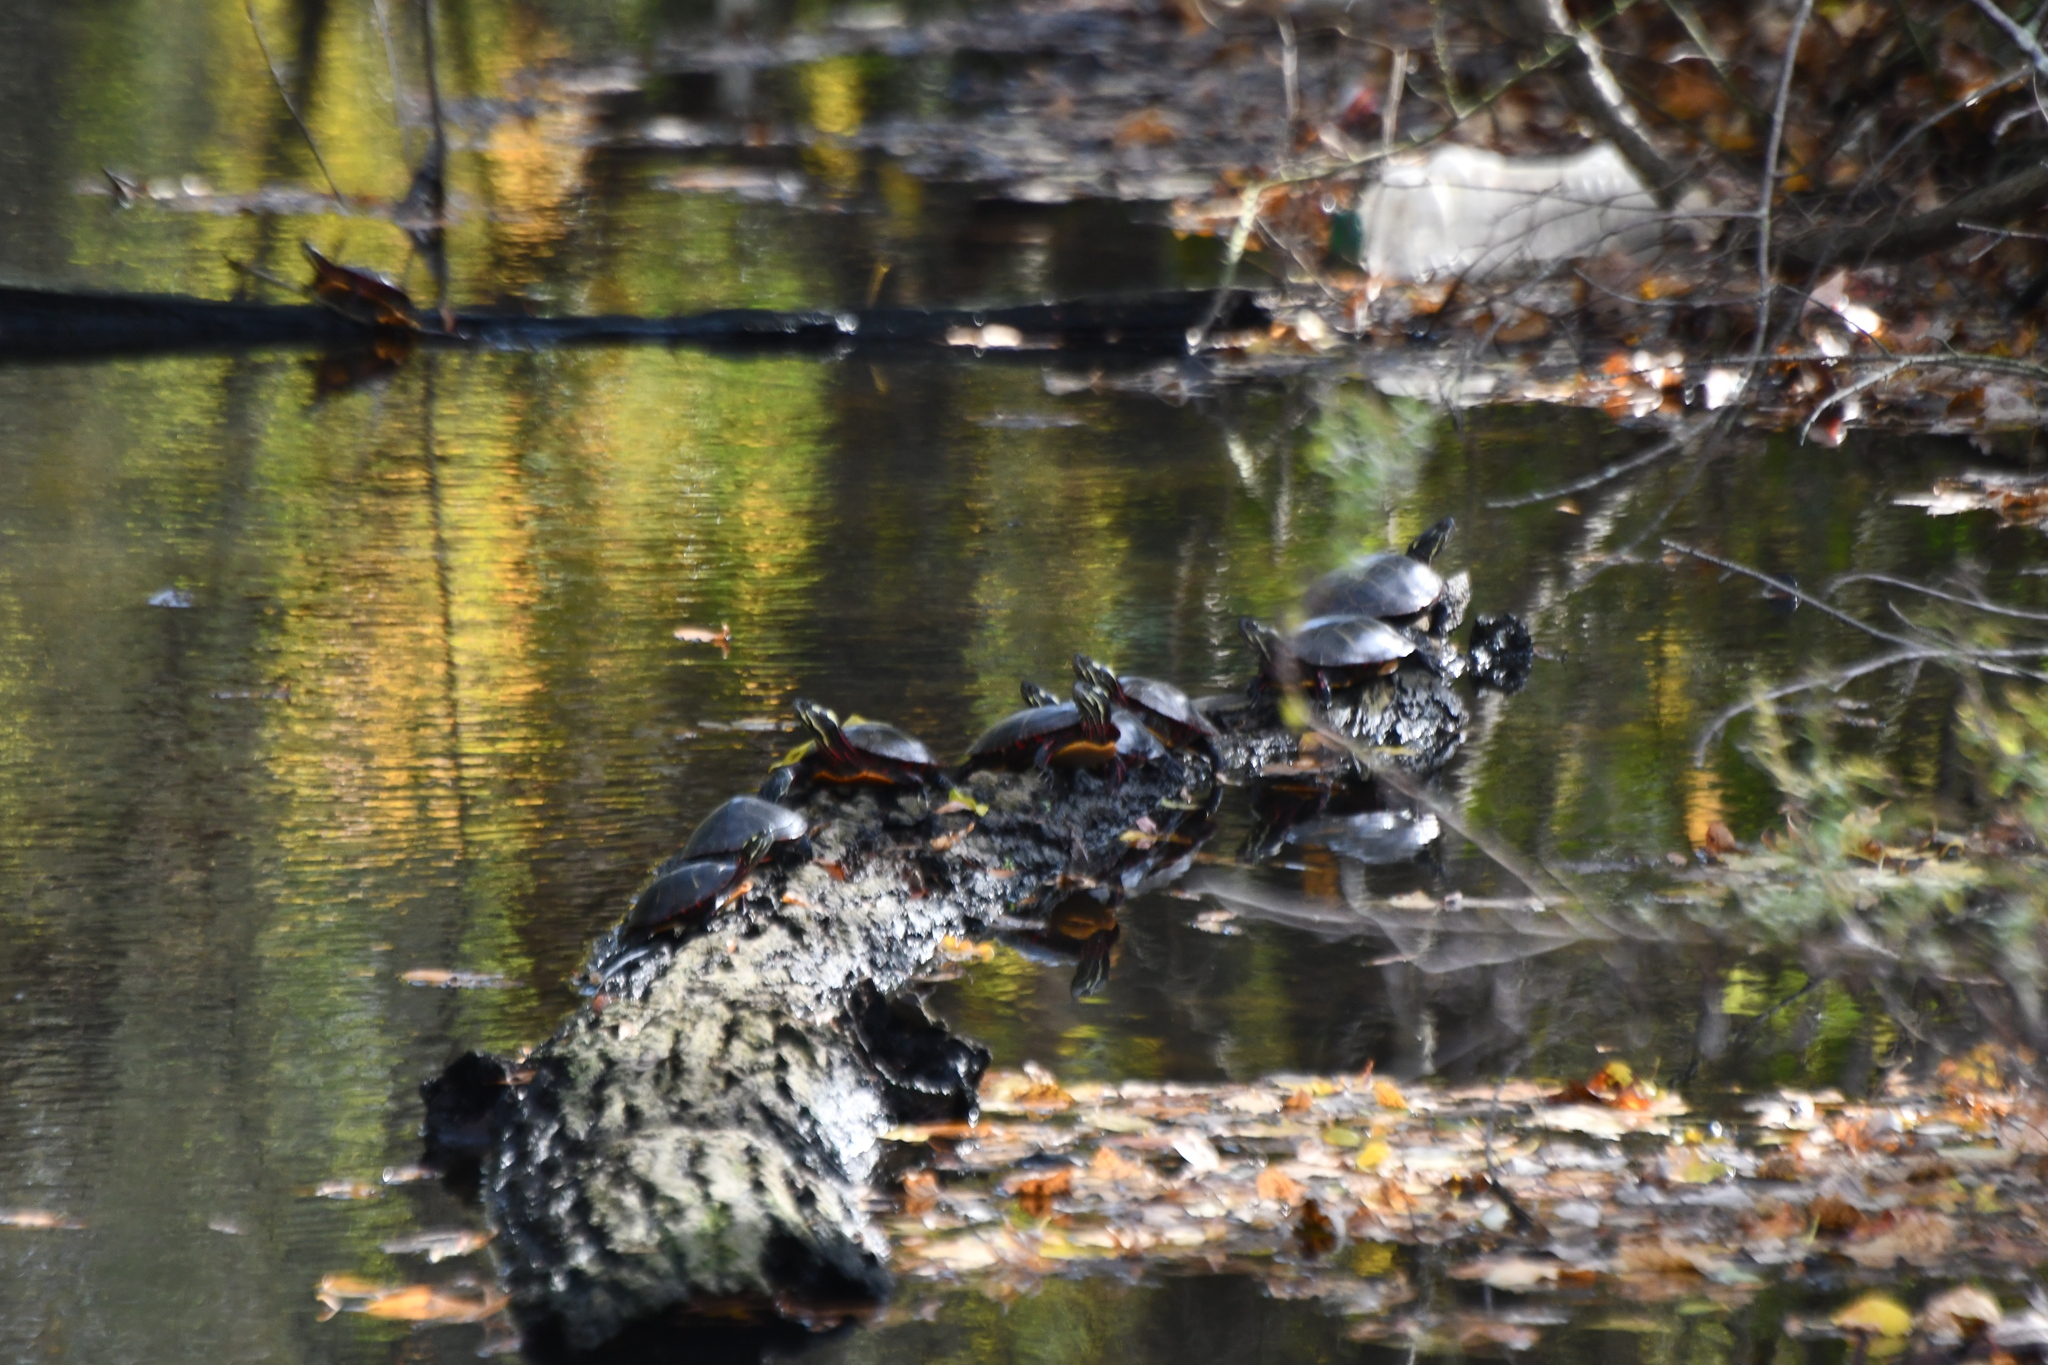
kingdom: Animalia
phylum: Chordata
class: Testudines
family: Emydidae
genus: Chrysemys
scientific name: Chrysemys picta
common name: Painted turtle
